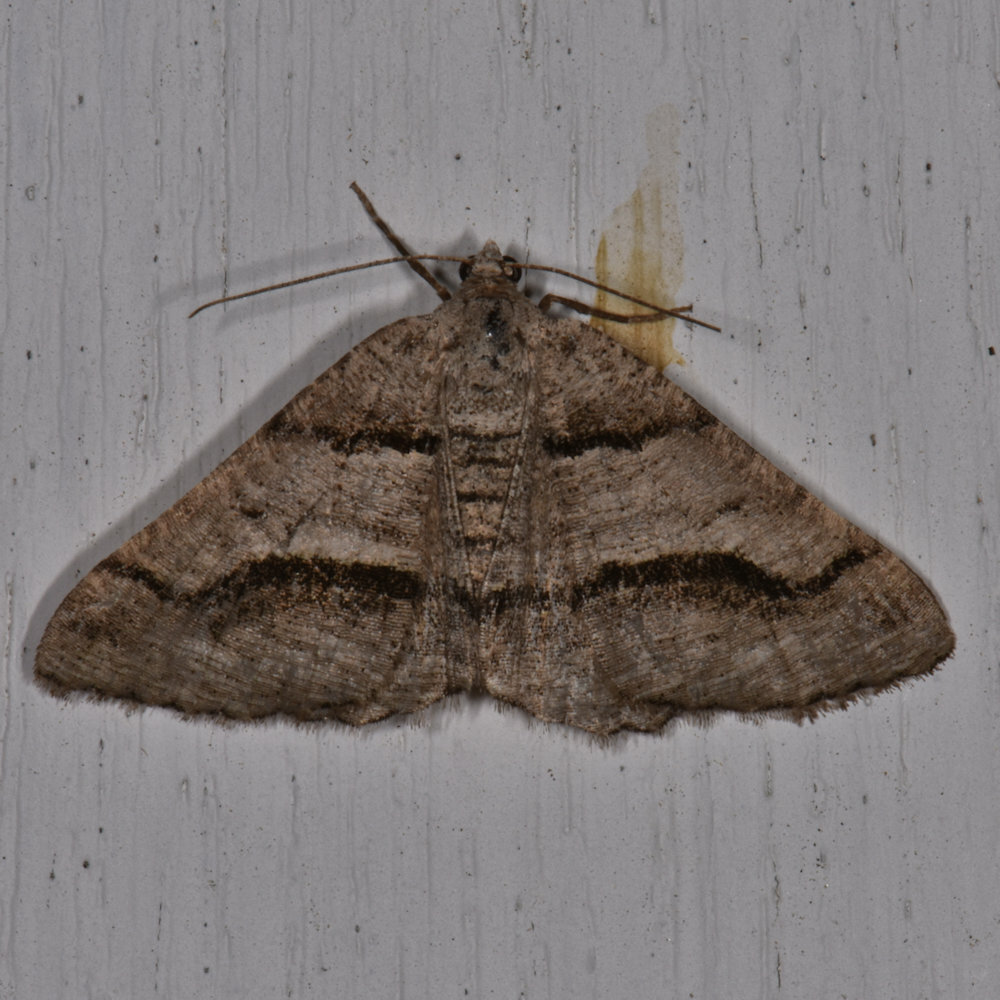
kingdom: Animalia
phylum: Arthropoda
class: Insecta
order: Lepidoptera
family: Geometridae
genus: Digrammia
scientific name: Digrammia continuata
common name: Curve-lined angle
